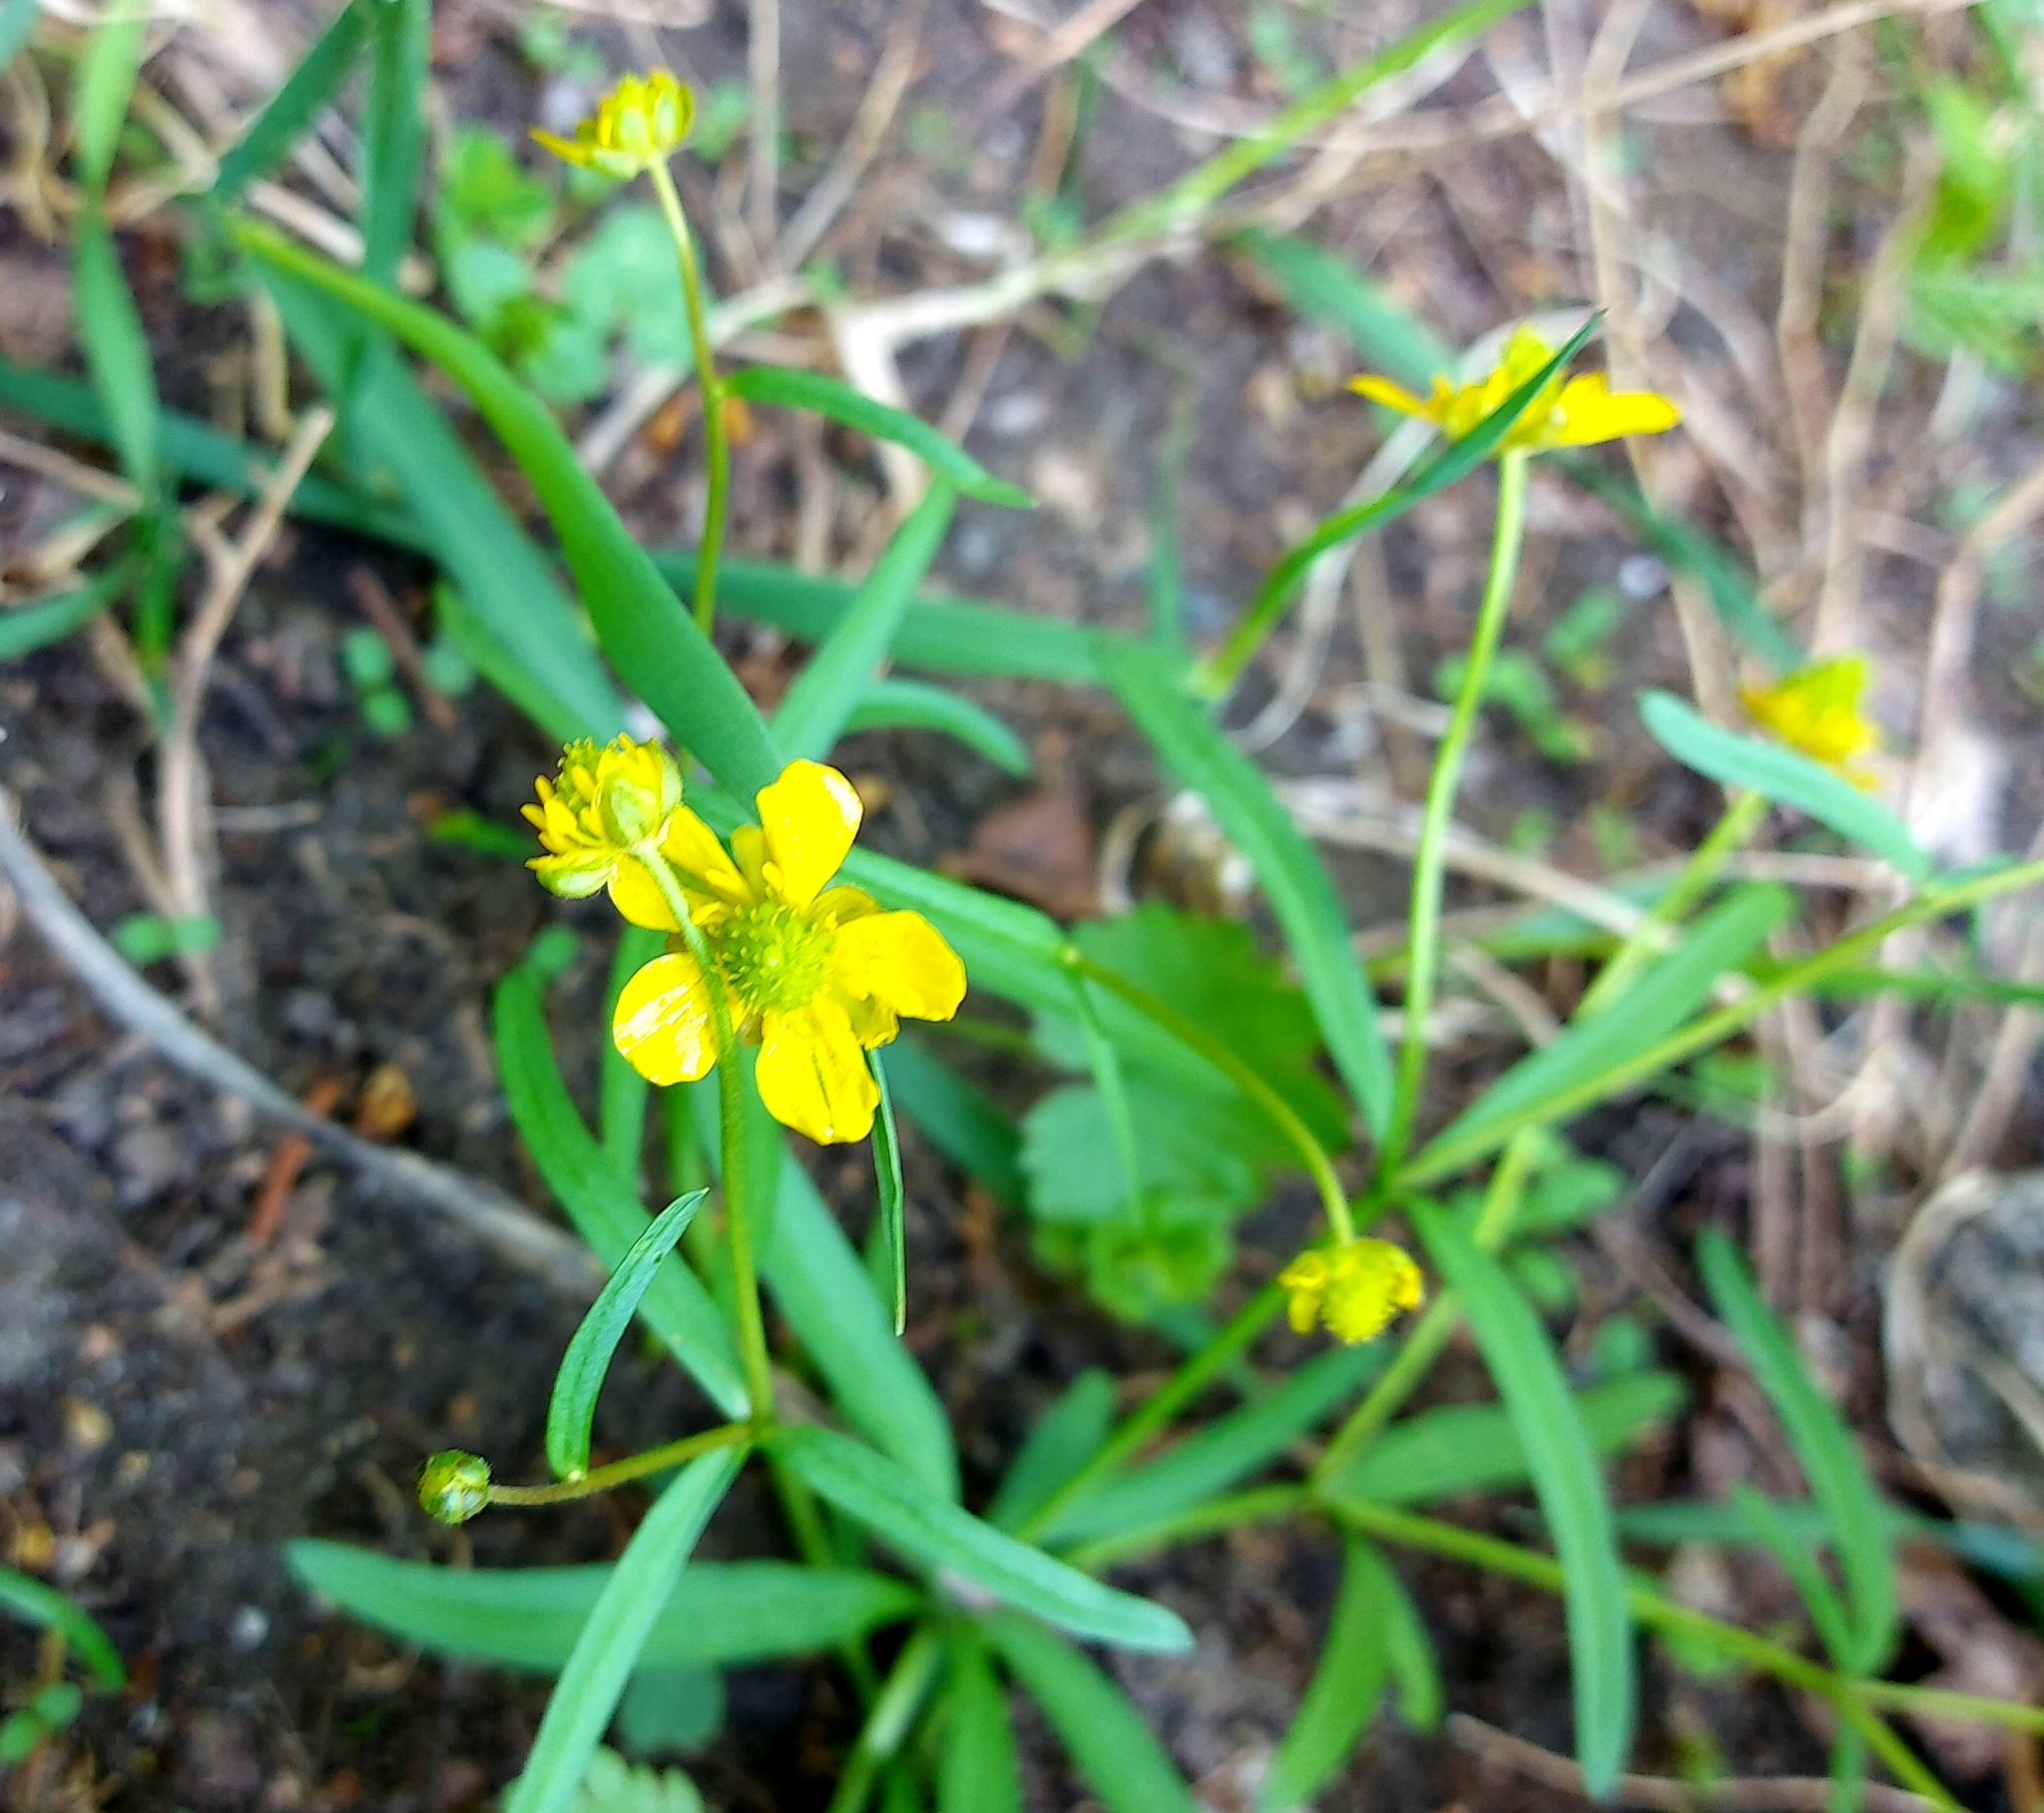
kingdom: Plantae
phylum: Tracheophyta
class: Magnoliopsida
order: Ranunculales
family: Ranunculaceae
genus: Ranunculus
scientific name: Ranunculus monophyllus
